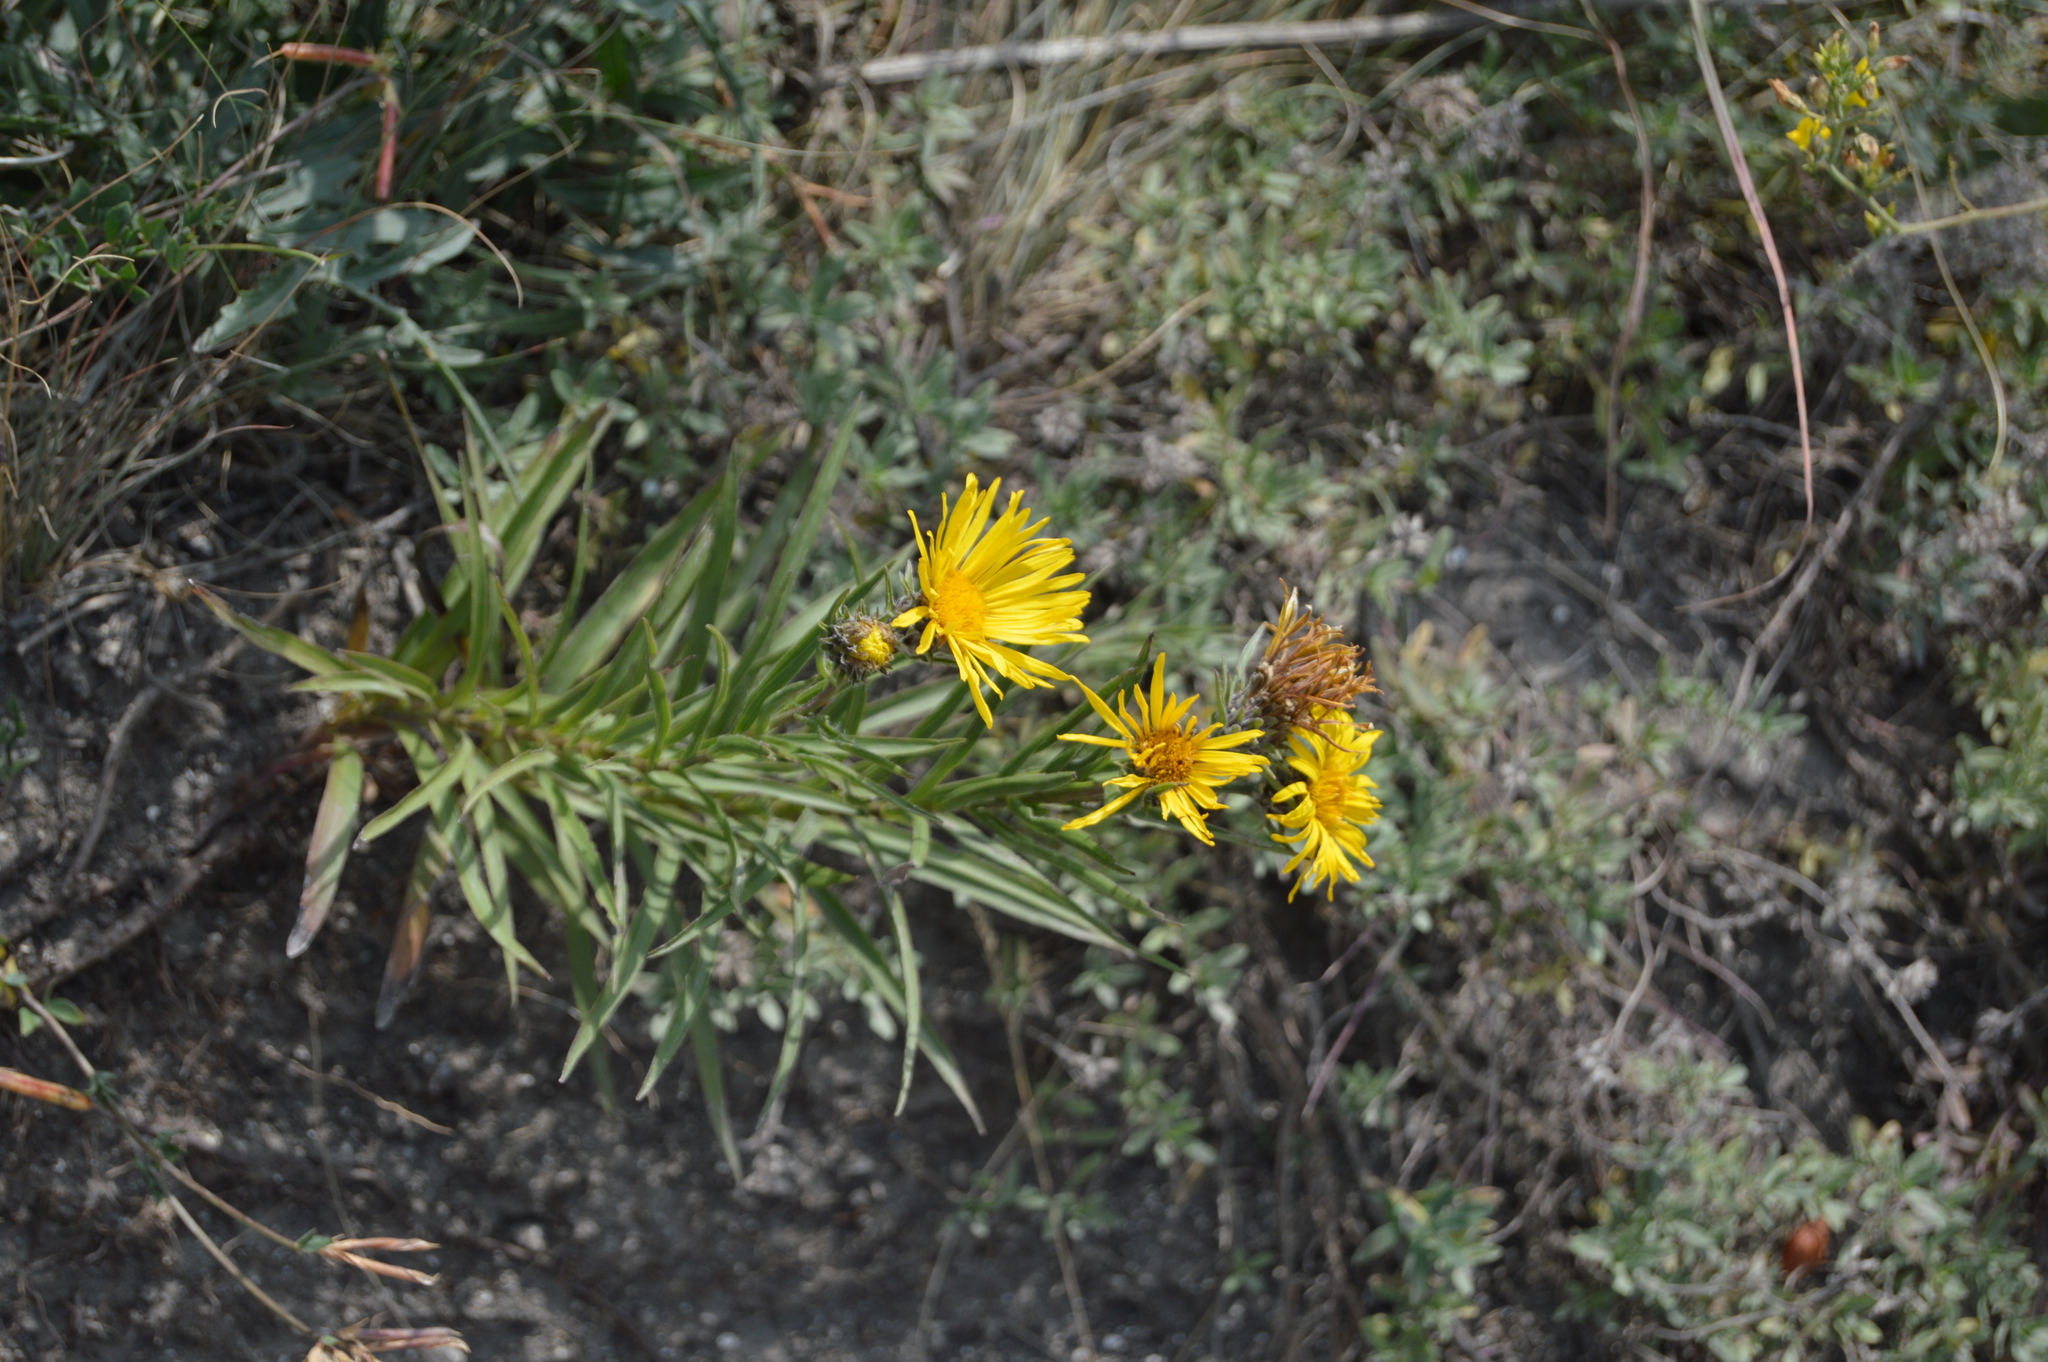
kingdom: Plantae
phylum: Tracheophyta
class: Magnoliopsida
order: Asterales
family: Asteraceae
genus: Pentanema
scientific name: Pentanema ensifolium
